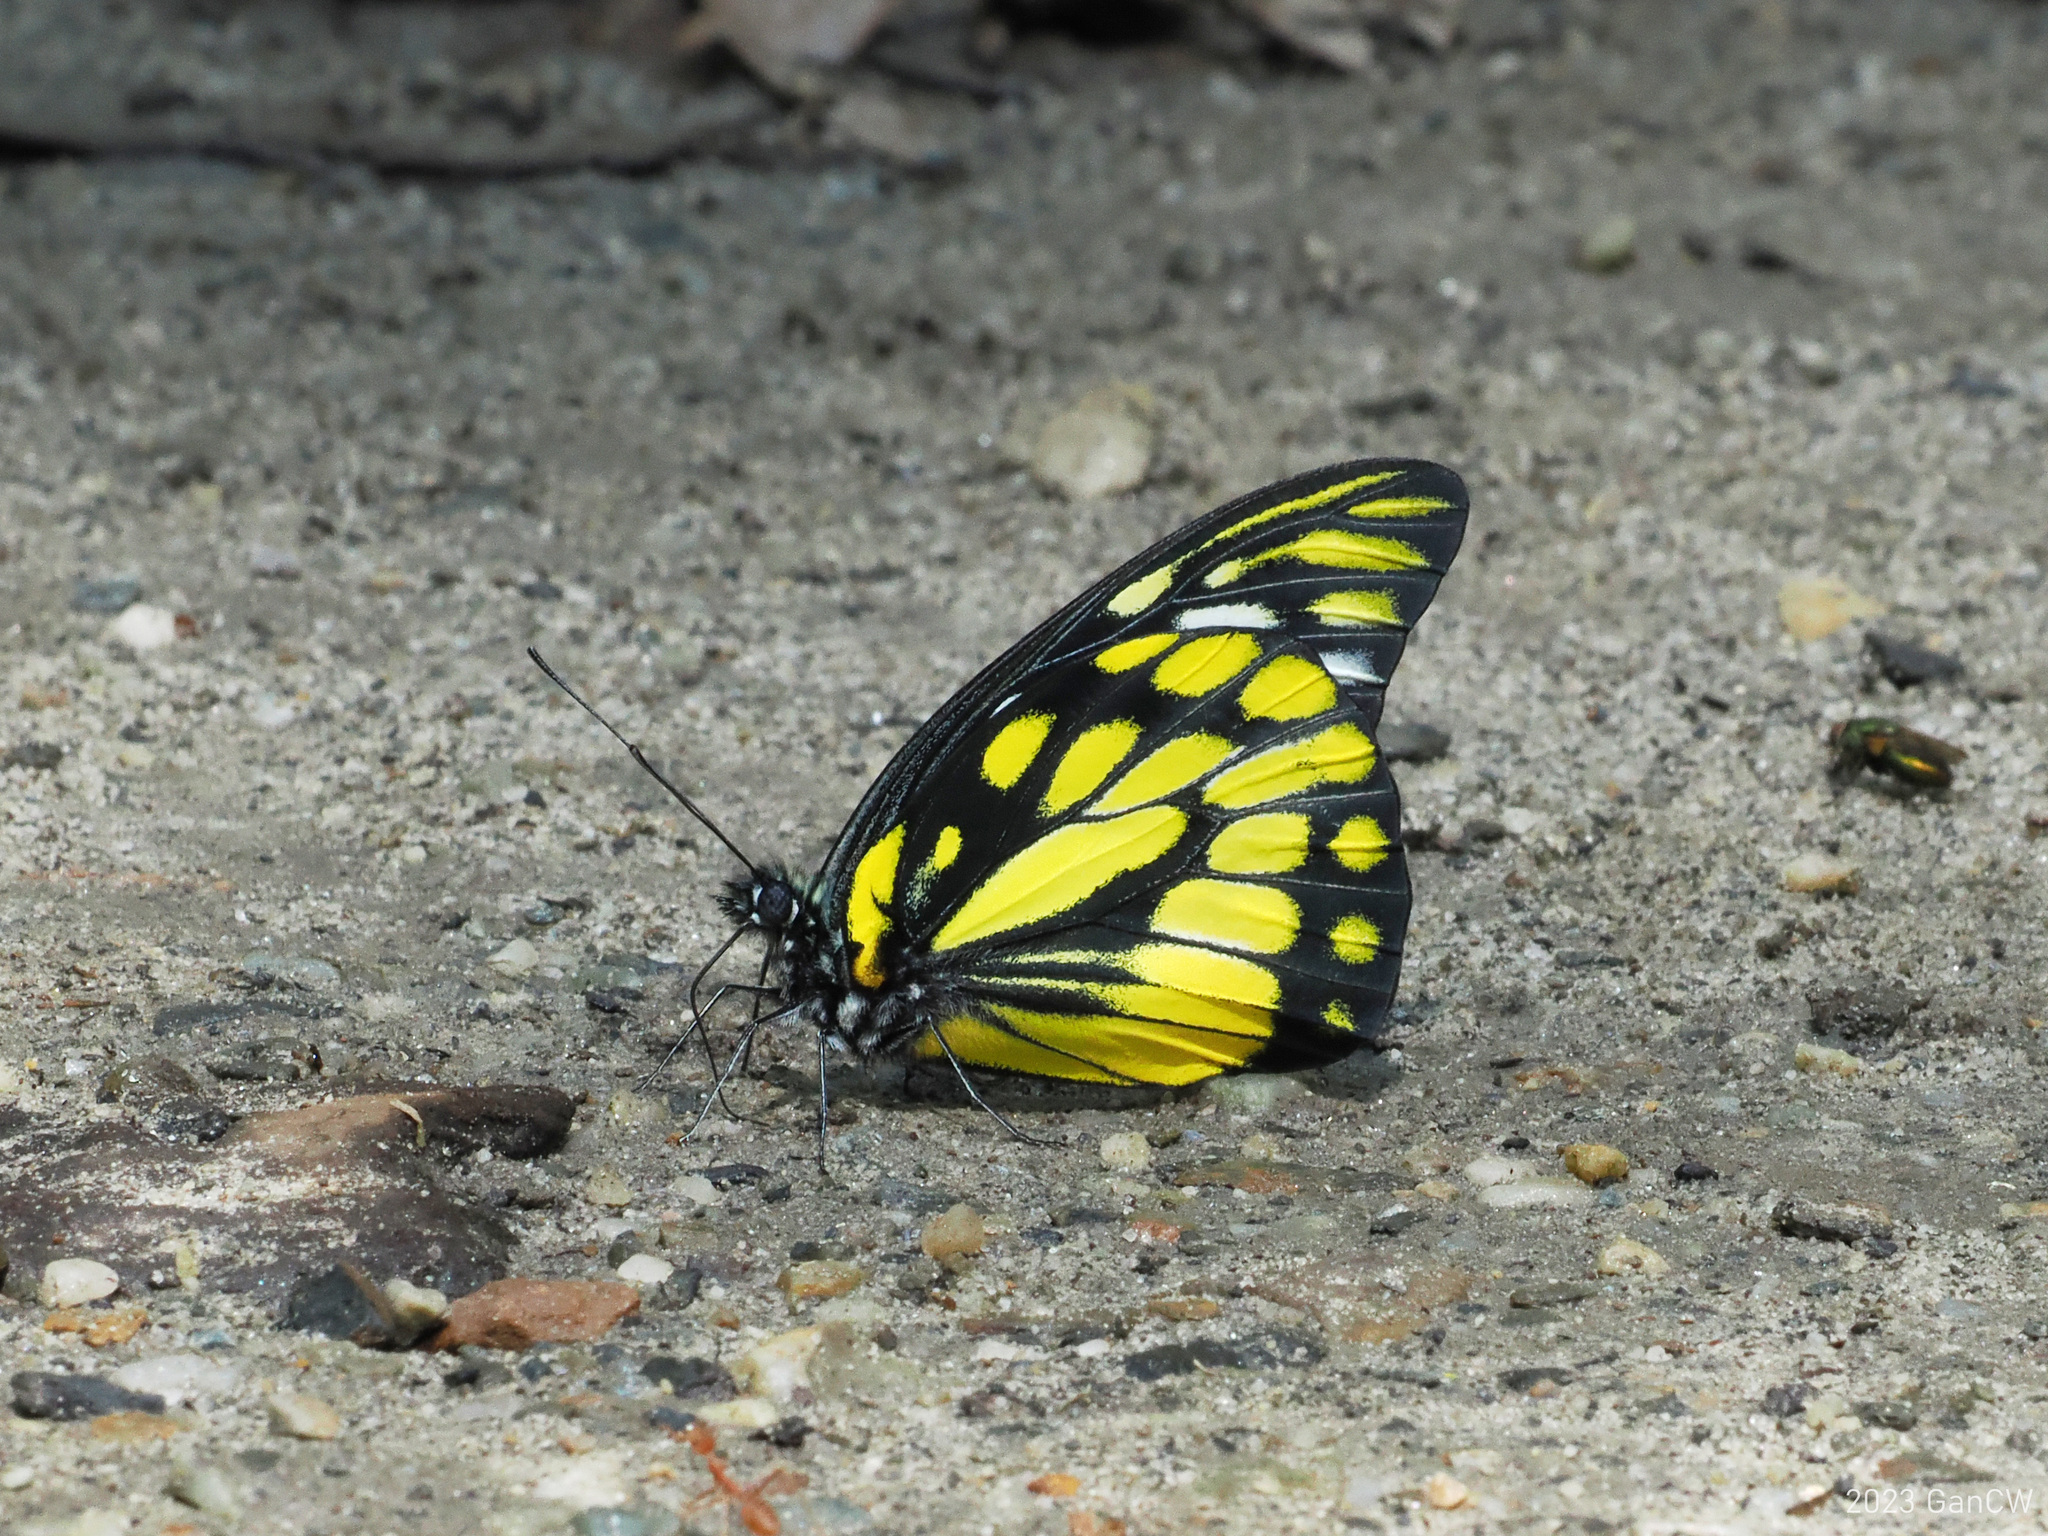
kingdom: Animalia
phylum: Arthropoda
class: Insecta
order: Lepidoptera
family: Pieridae
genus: Prioneris
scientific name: Prioneris thestylis
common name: Spotted sawtooth
